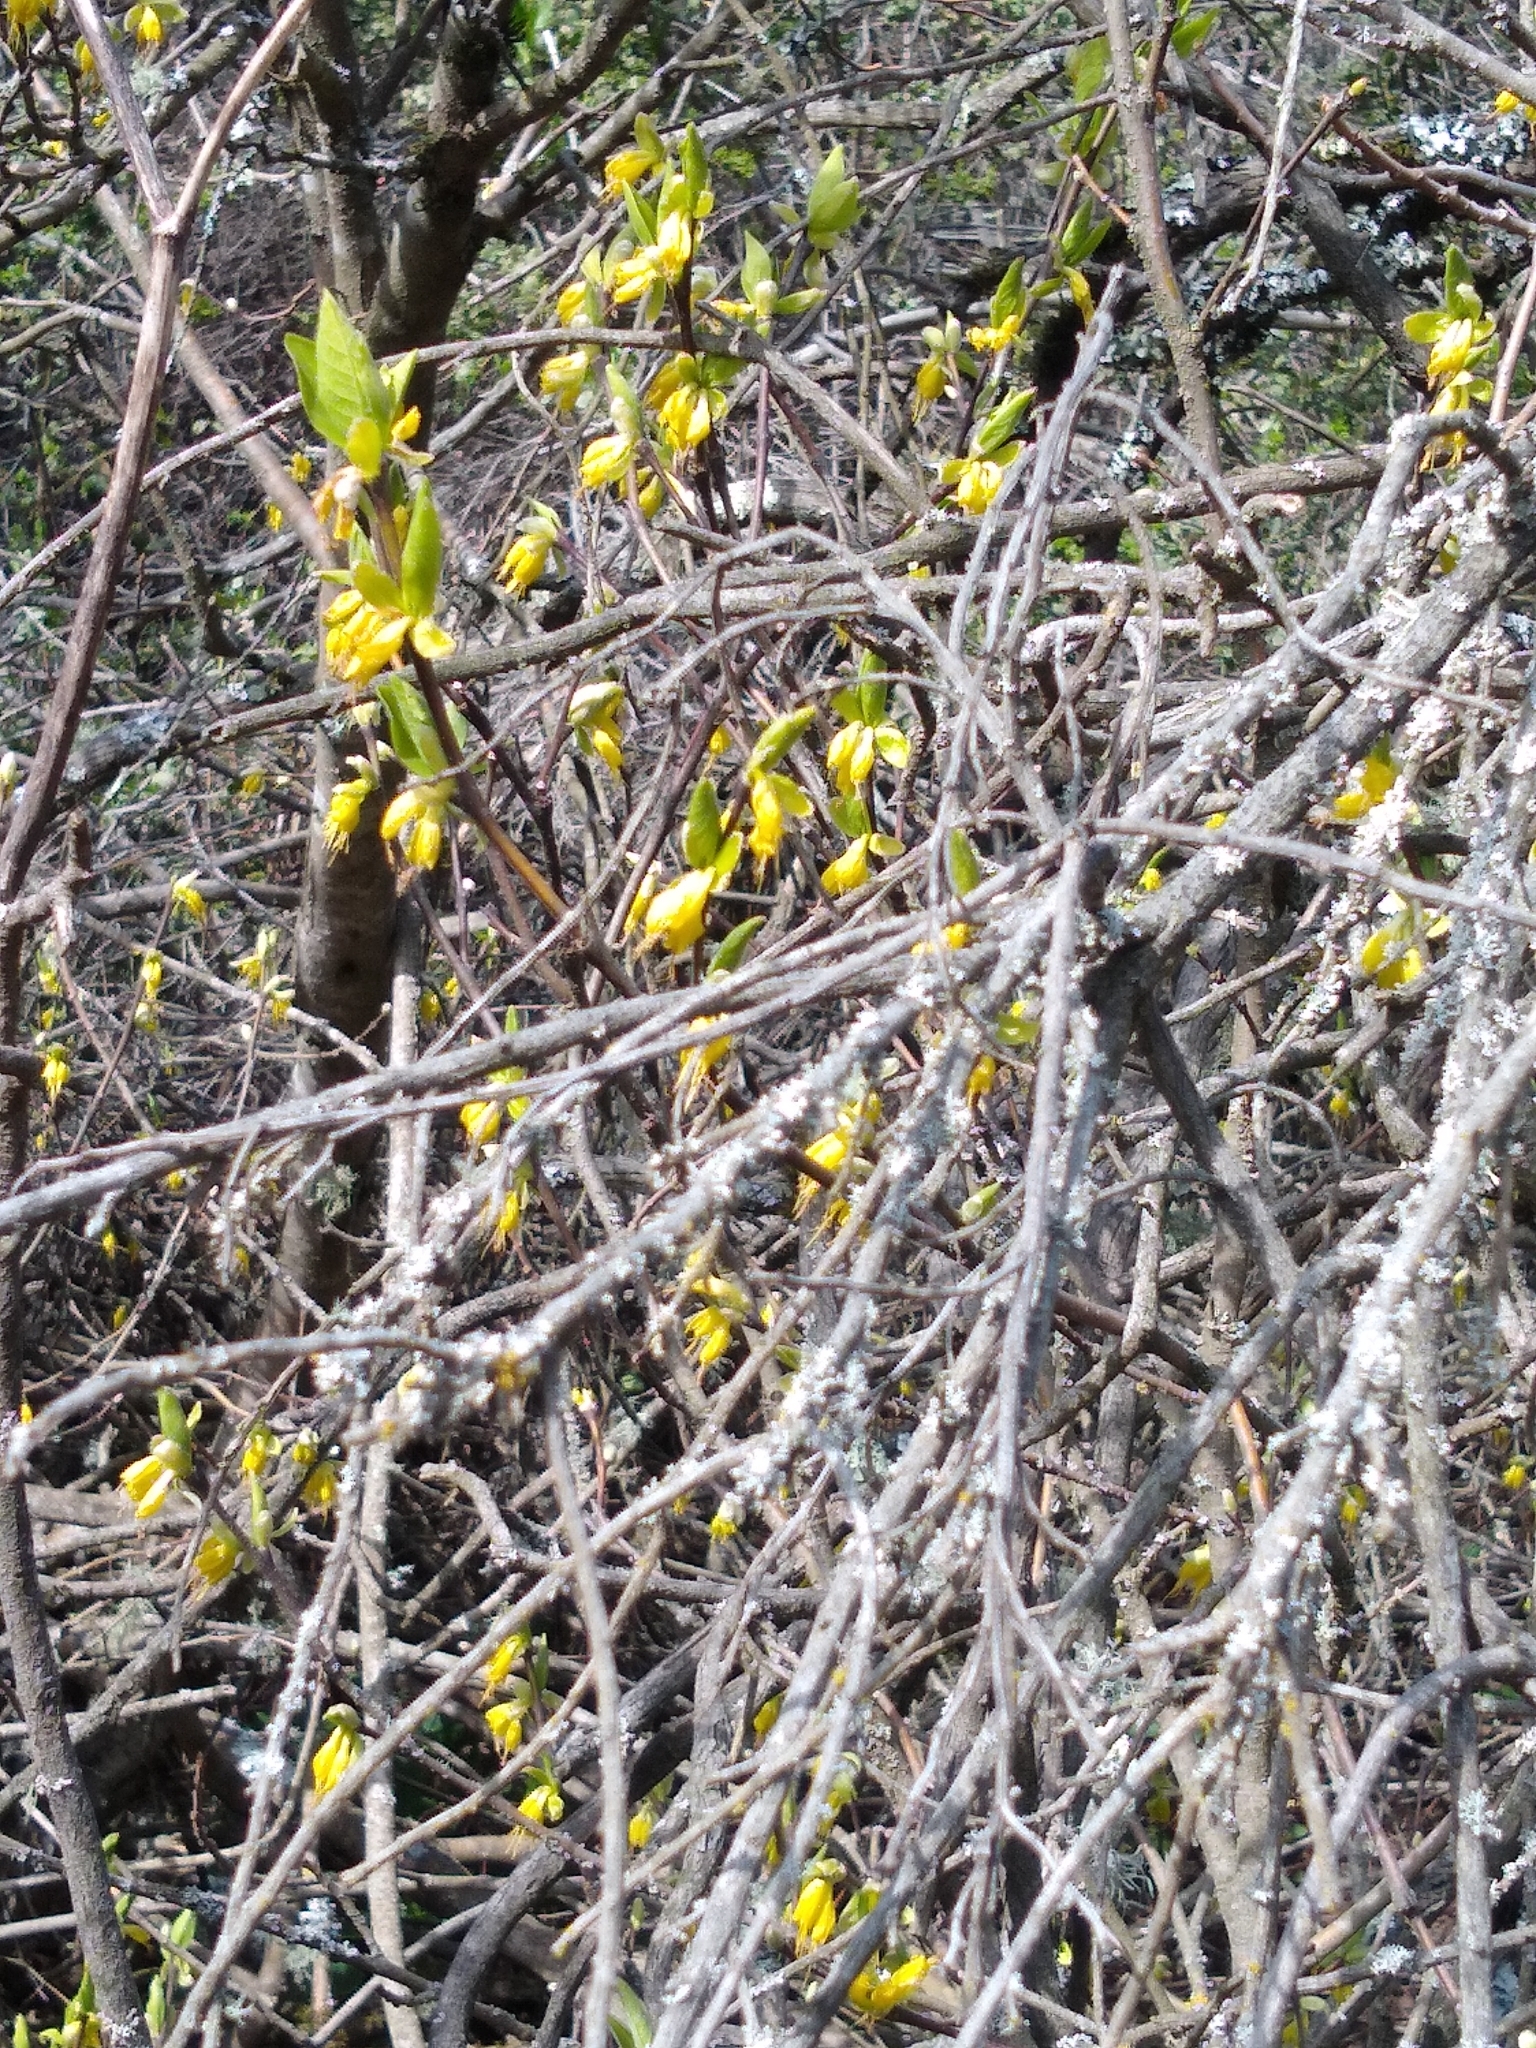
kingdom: Plantae
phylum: Tracheophyta
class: Magnoliopsida
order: Malvales
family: Thymelaeaceae
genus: Dirca
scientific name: Dirca occidentalis
